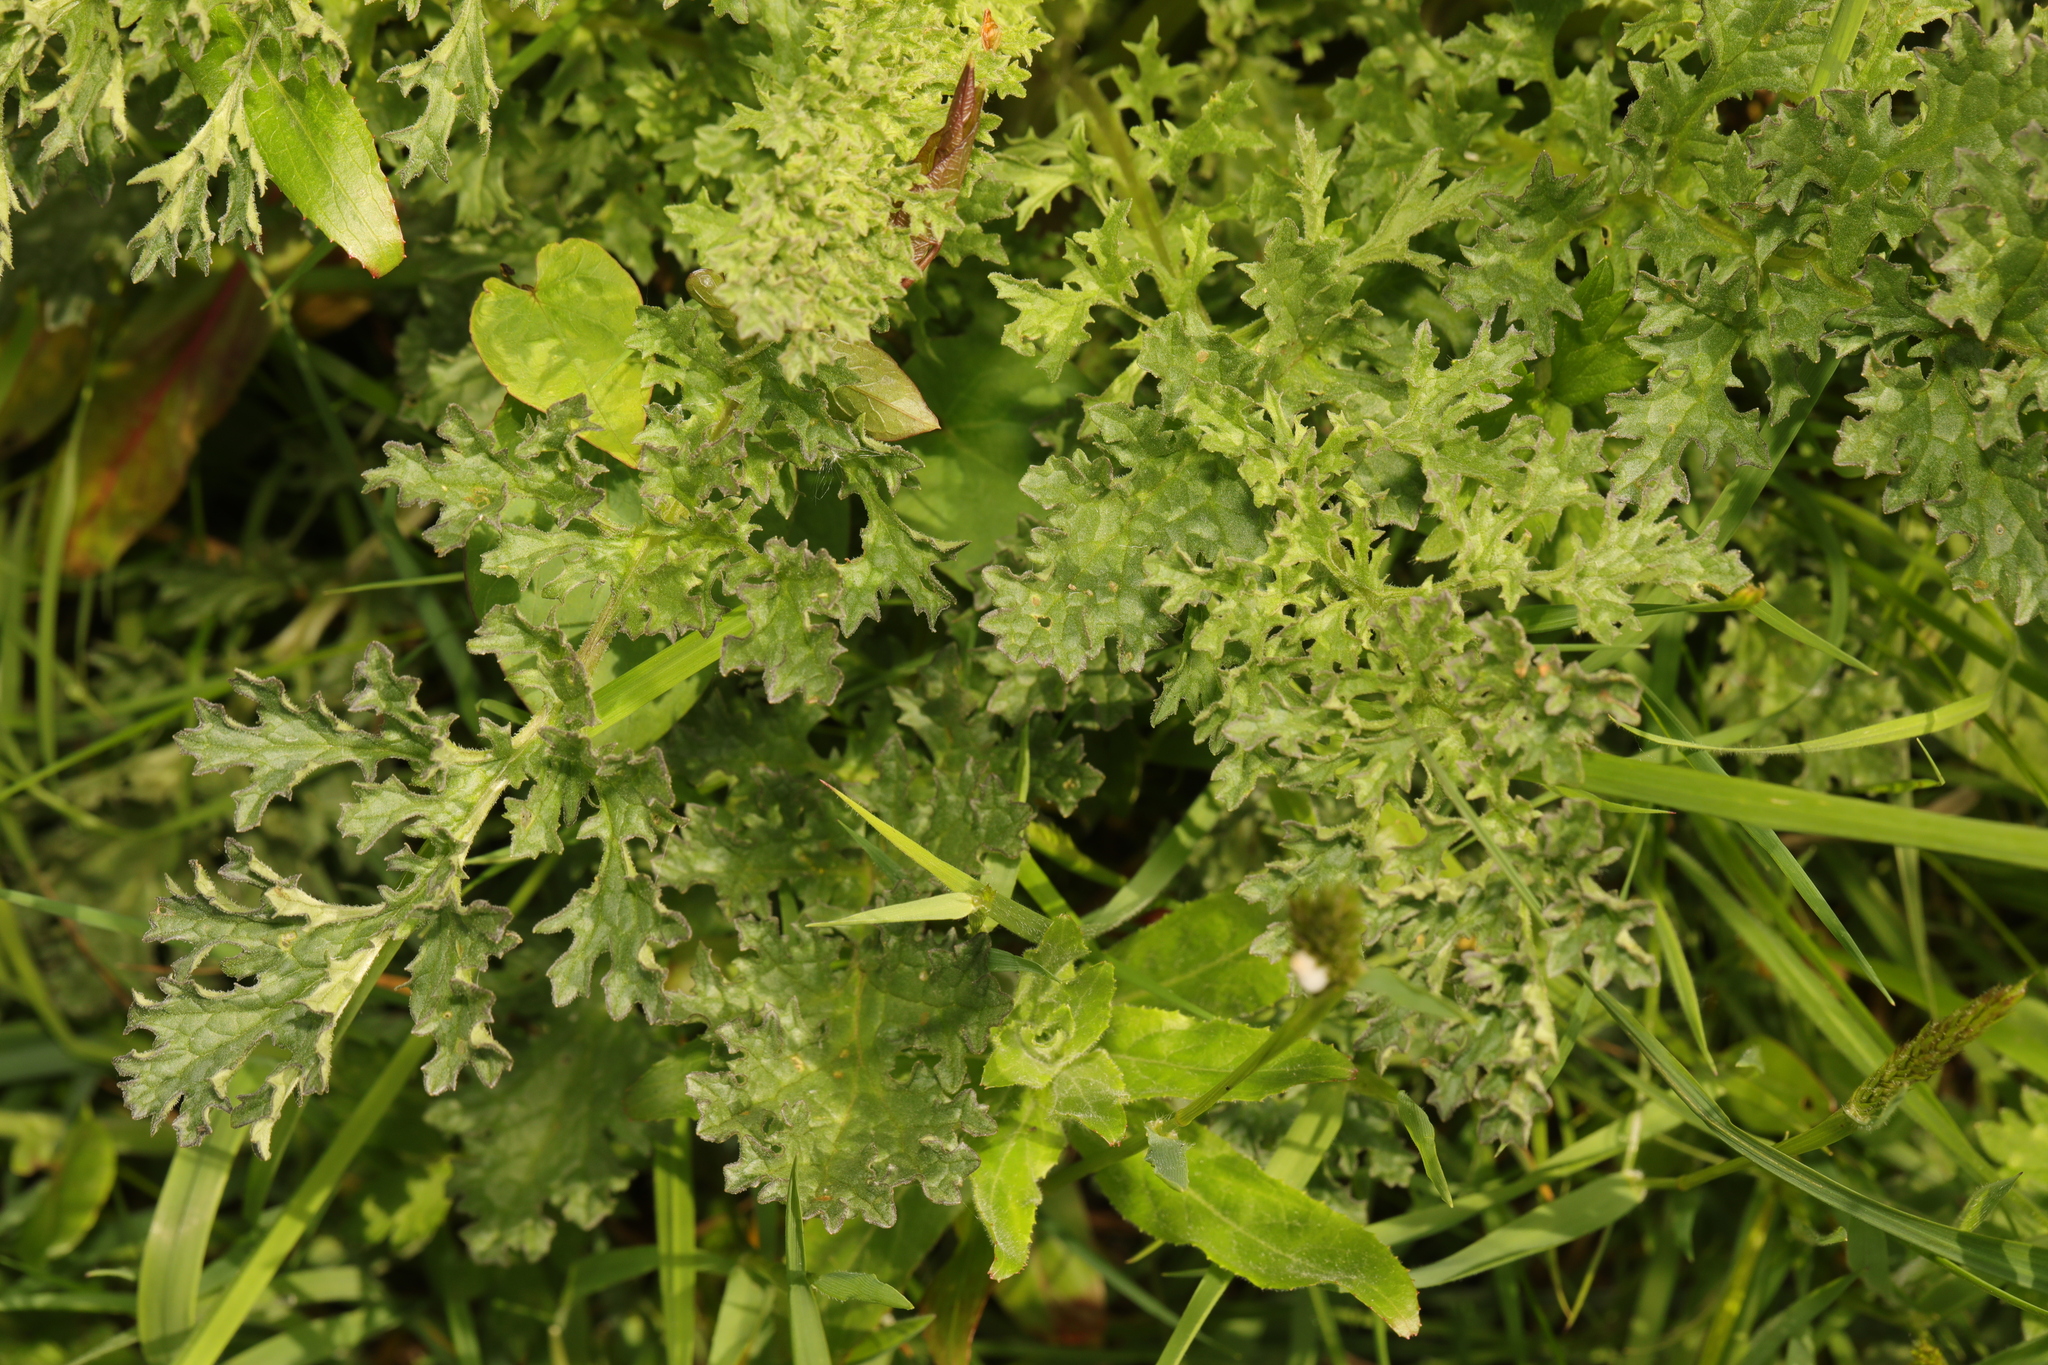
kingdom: Plantae
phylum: Tracheophyta
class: Magnoliopsida
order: Asterales
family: Asteraceae
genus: Jacobaea
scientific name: Jacobaea vulgaris
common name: Stinking willie
